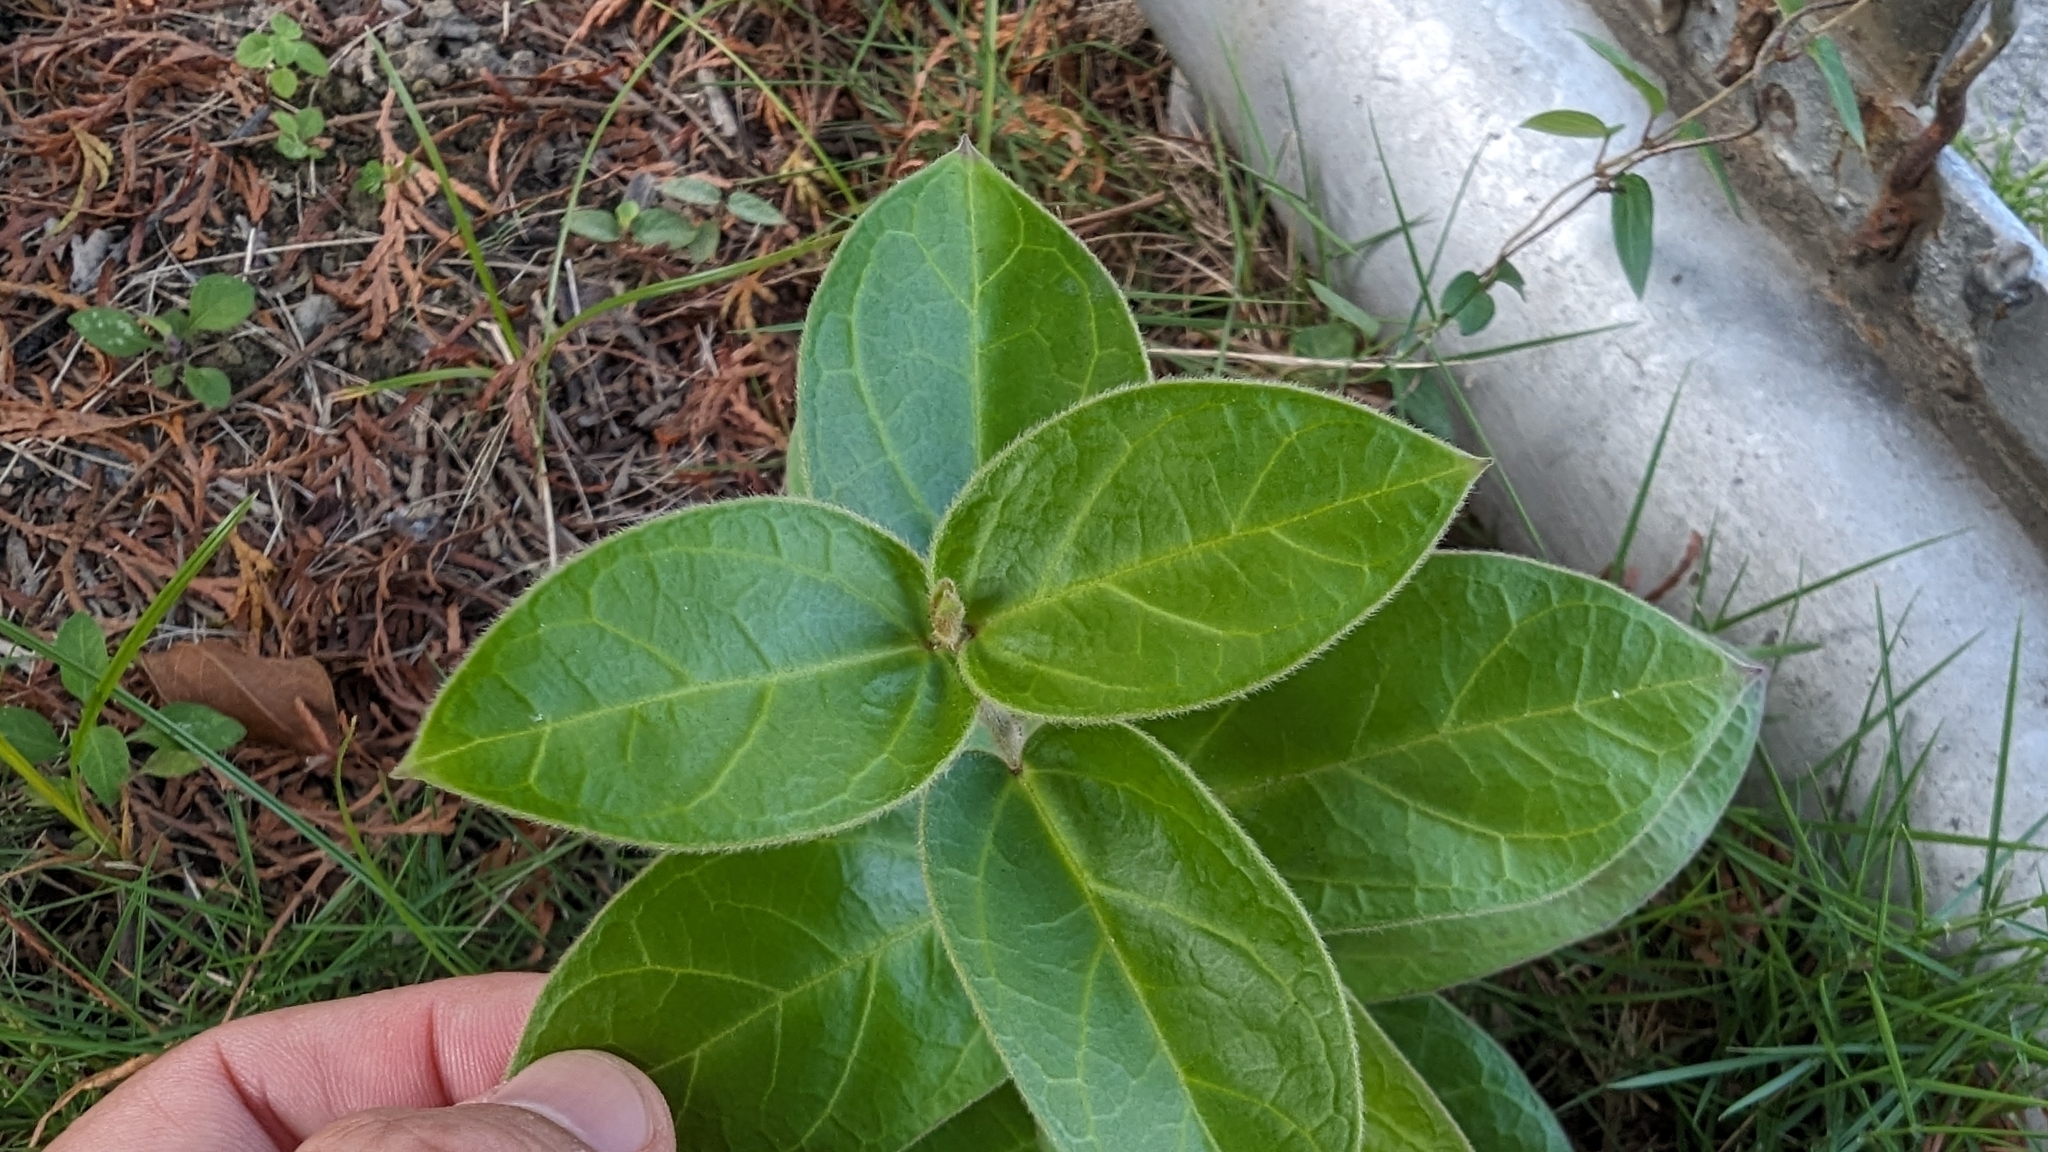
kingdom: Plantae
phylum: Tracheophyta
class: Magnoliopsida
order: Gentianales
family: Apocynaceae
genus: Vincetoxicum
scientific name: Vincetoxicum hirsutum
